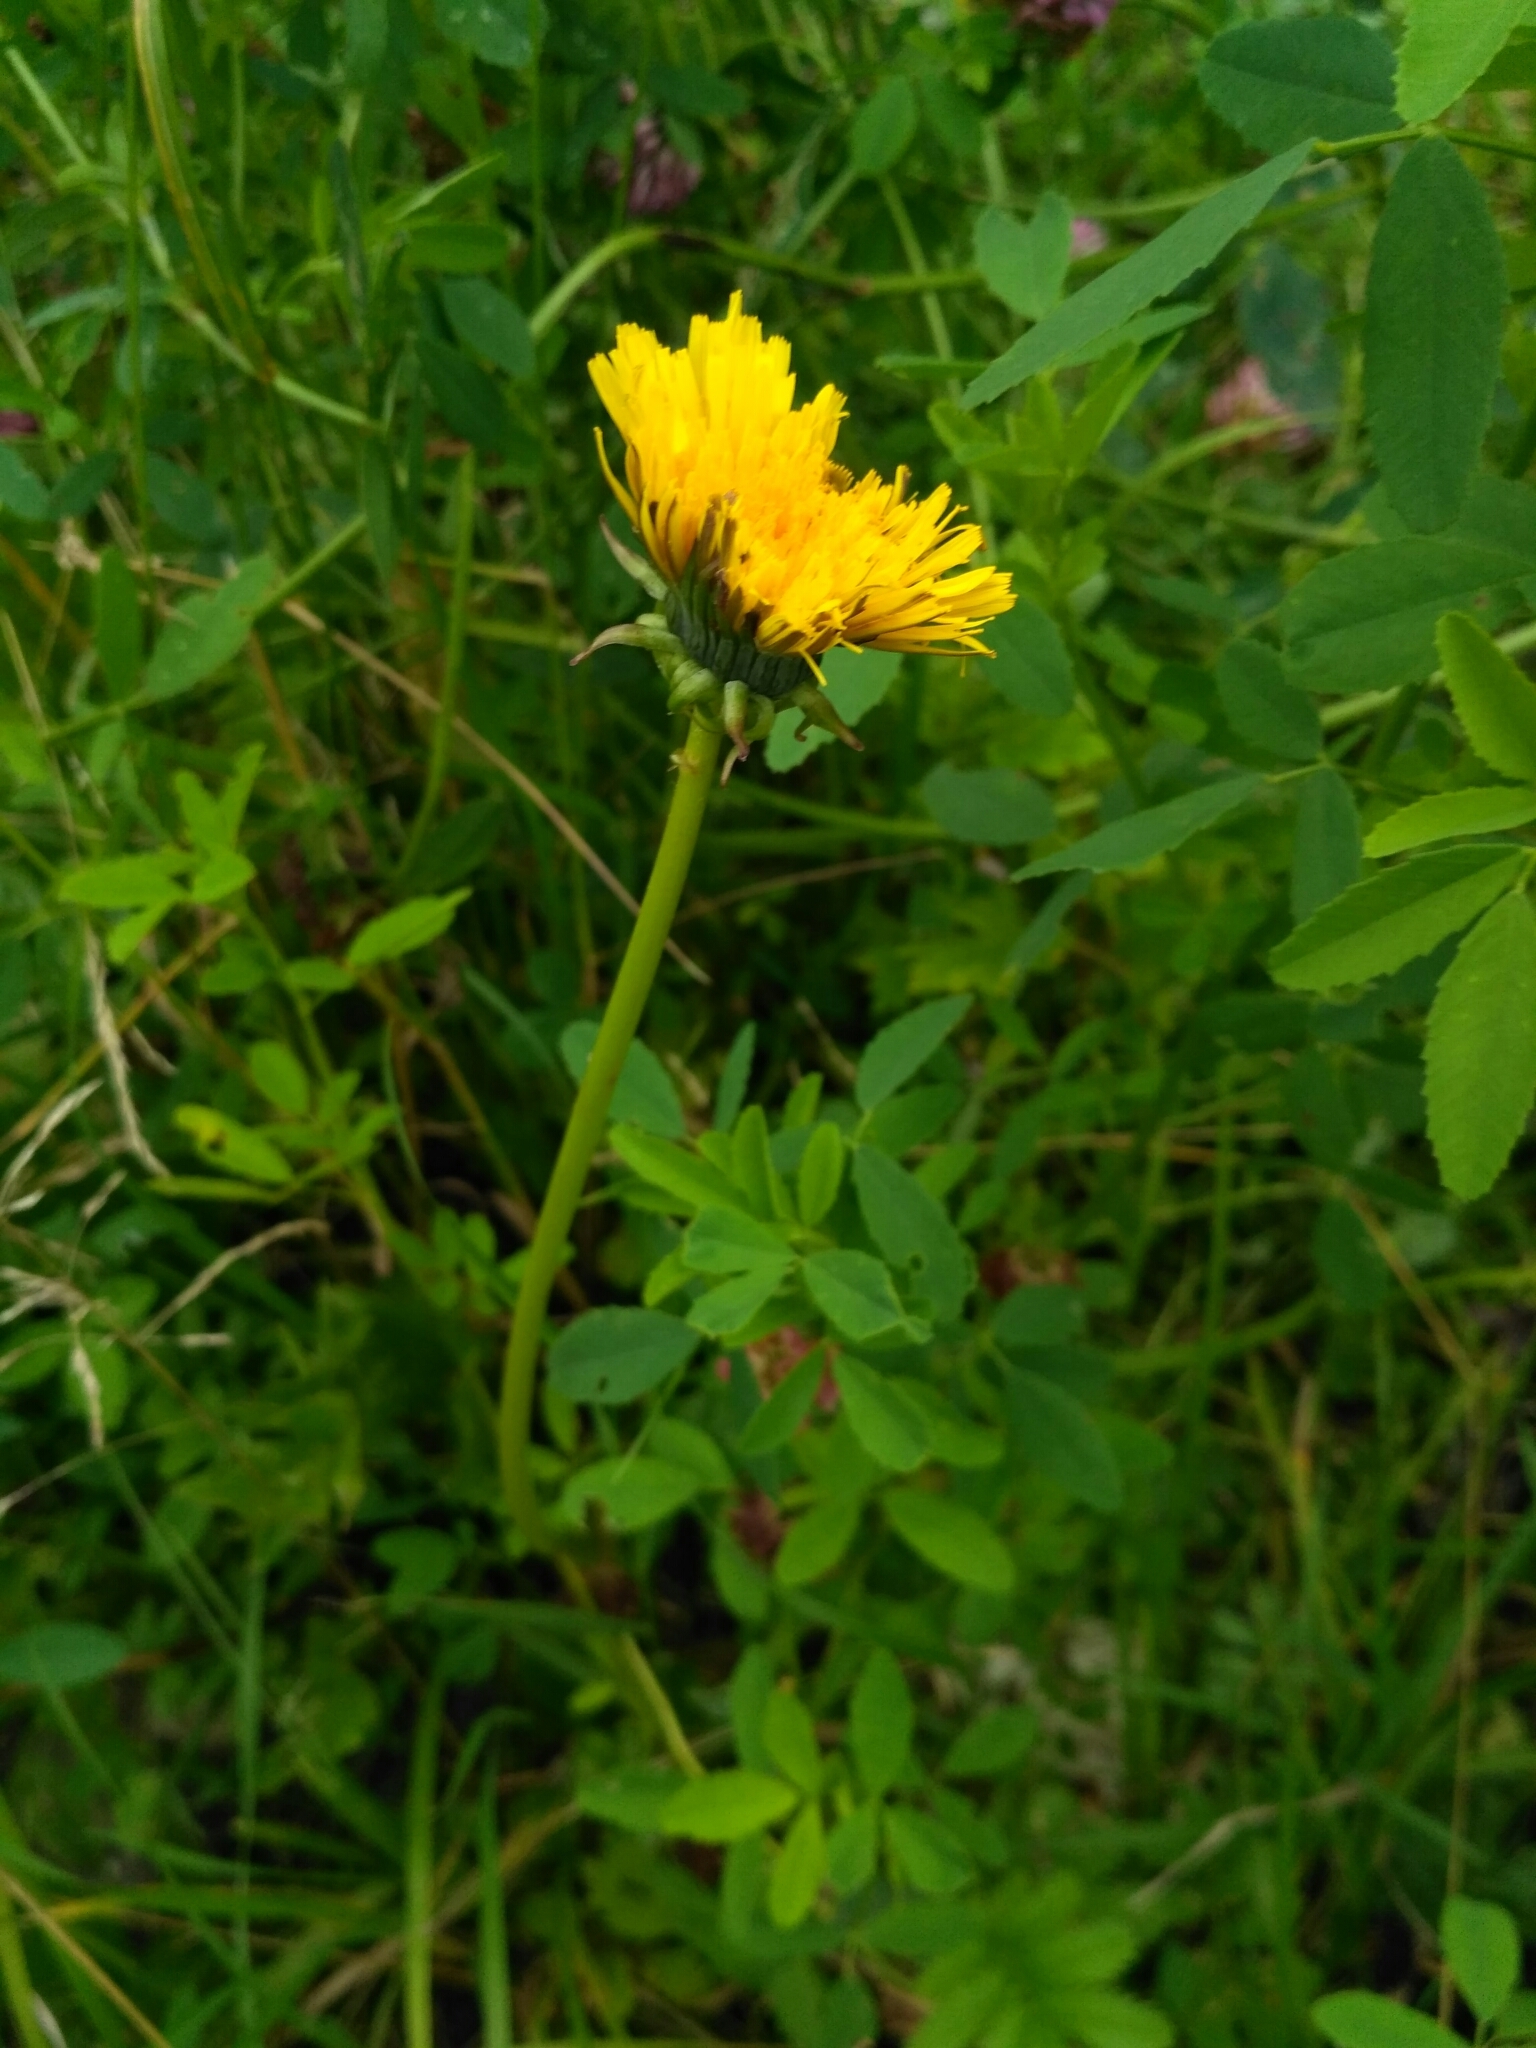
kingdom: Plantae
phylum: Tracheophyta
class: Magnoliopsida
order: Asterales
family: Asteraceae
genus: Taraxacum
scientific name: Taraxacum officinale
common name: Common dandelion
